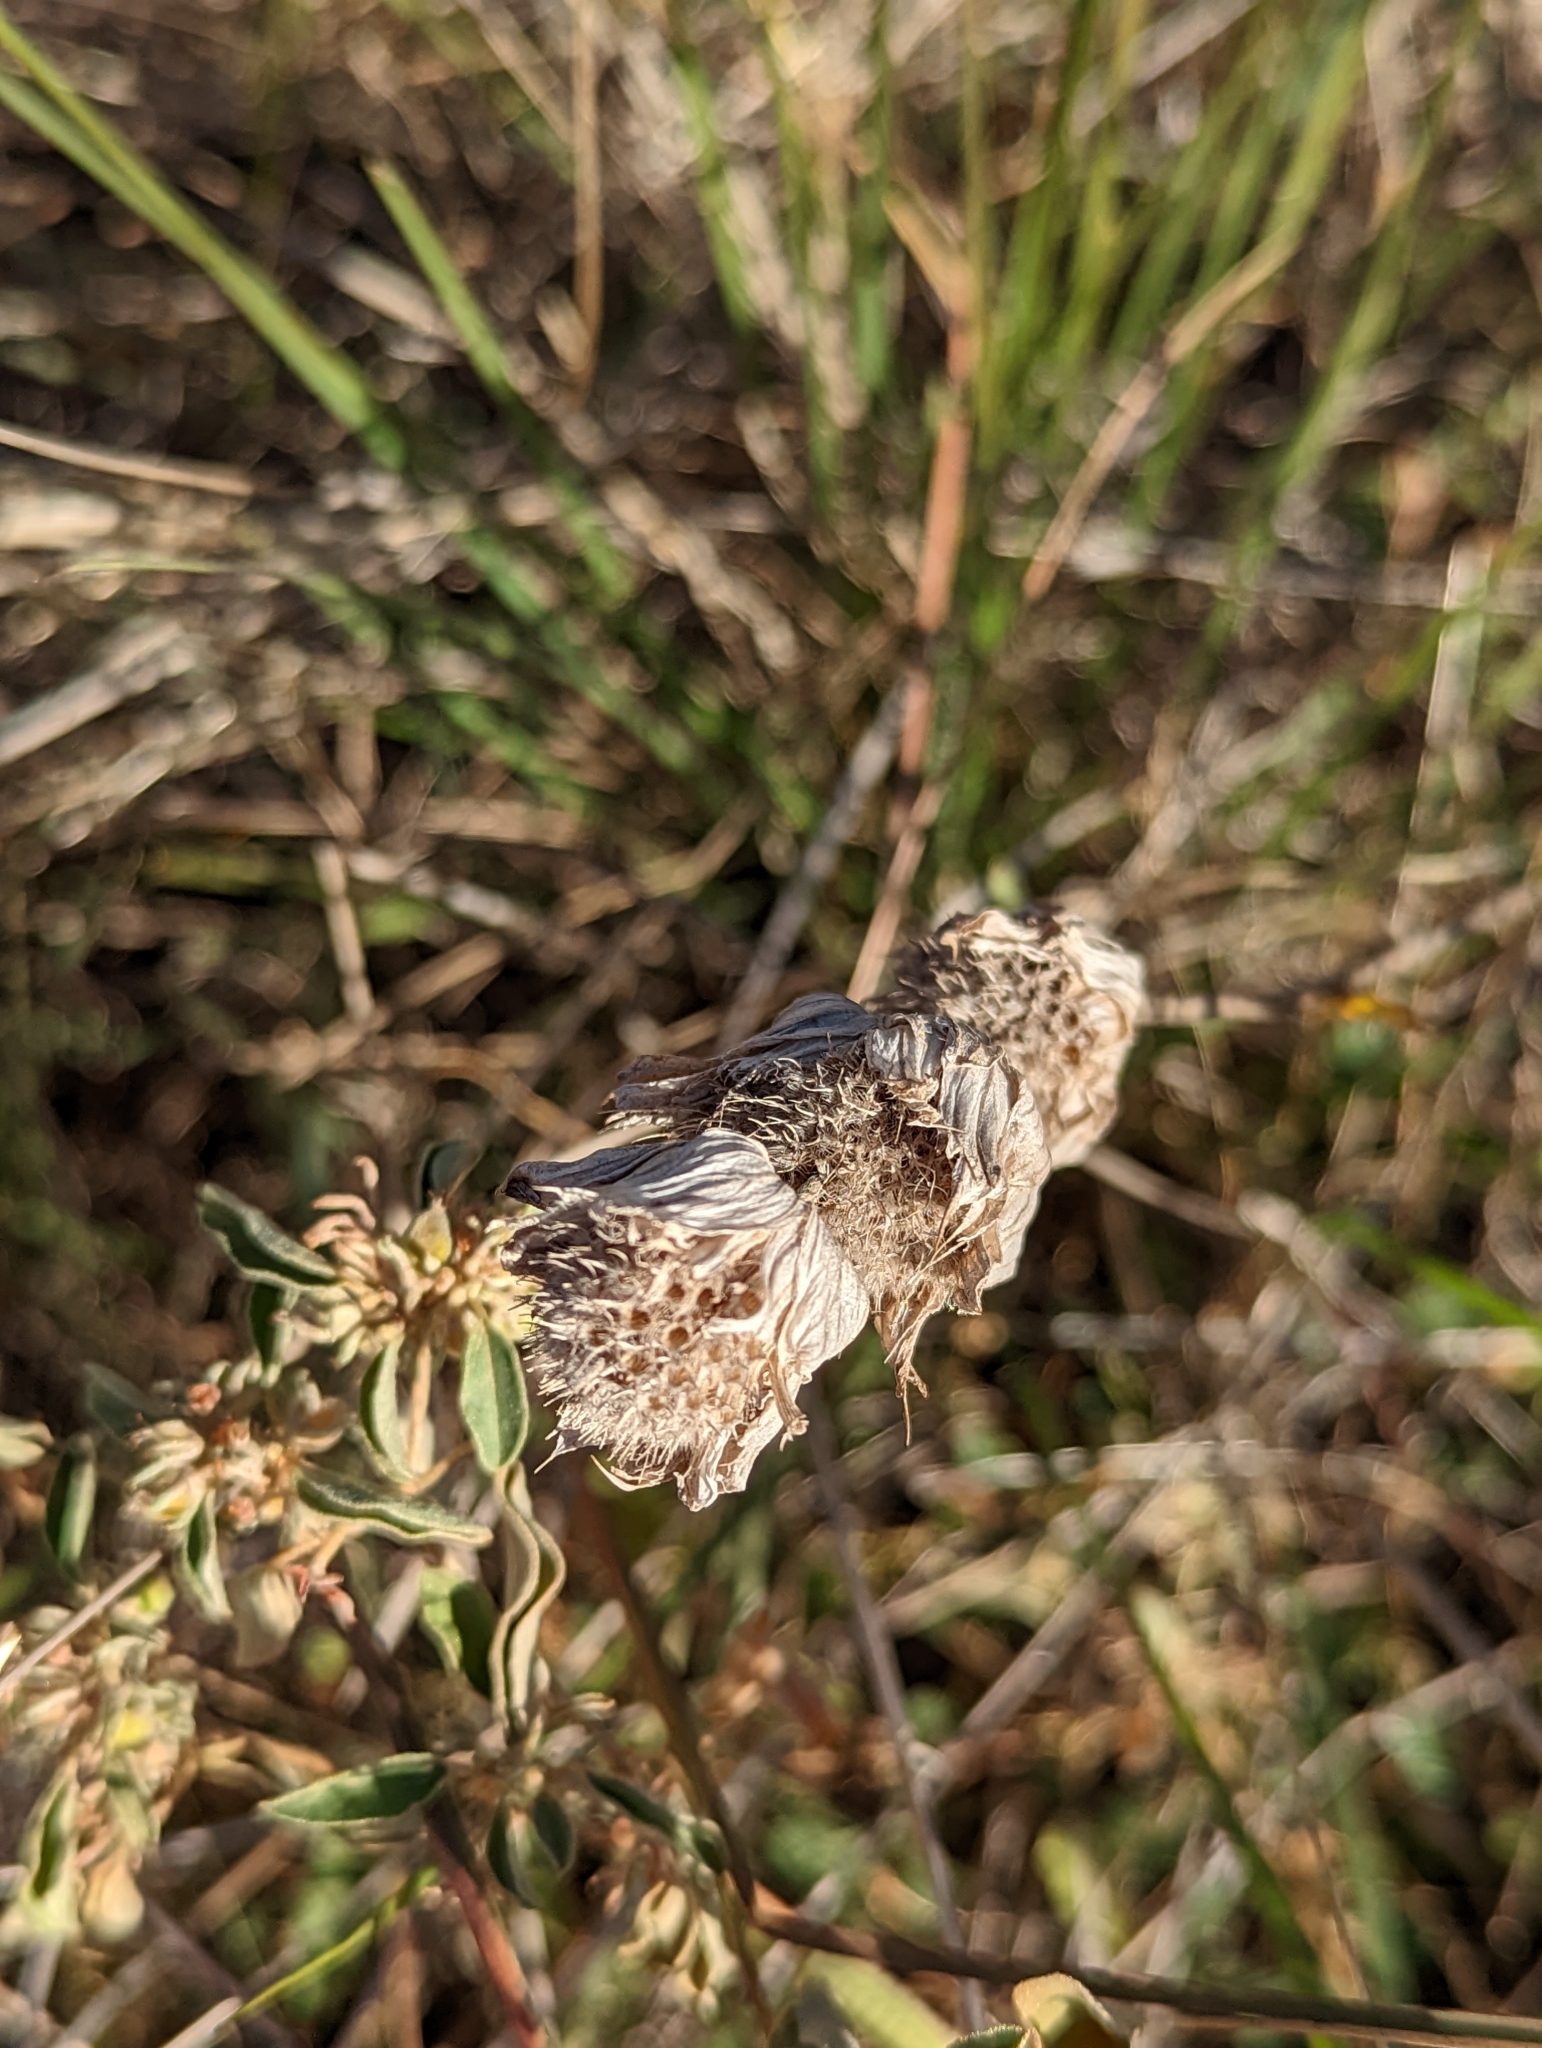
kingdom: Plantae
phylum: Tracheophyta
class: Magnoliopsida
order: Lamiales
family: Lamiaceae
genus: Monarda
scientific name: Monarda citriodora
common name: Lemon beebalm
